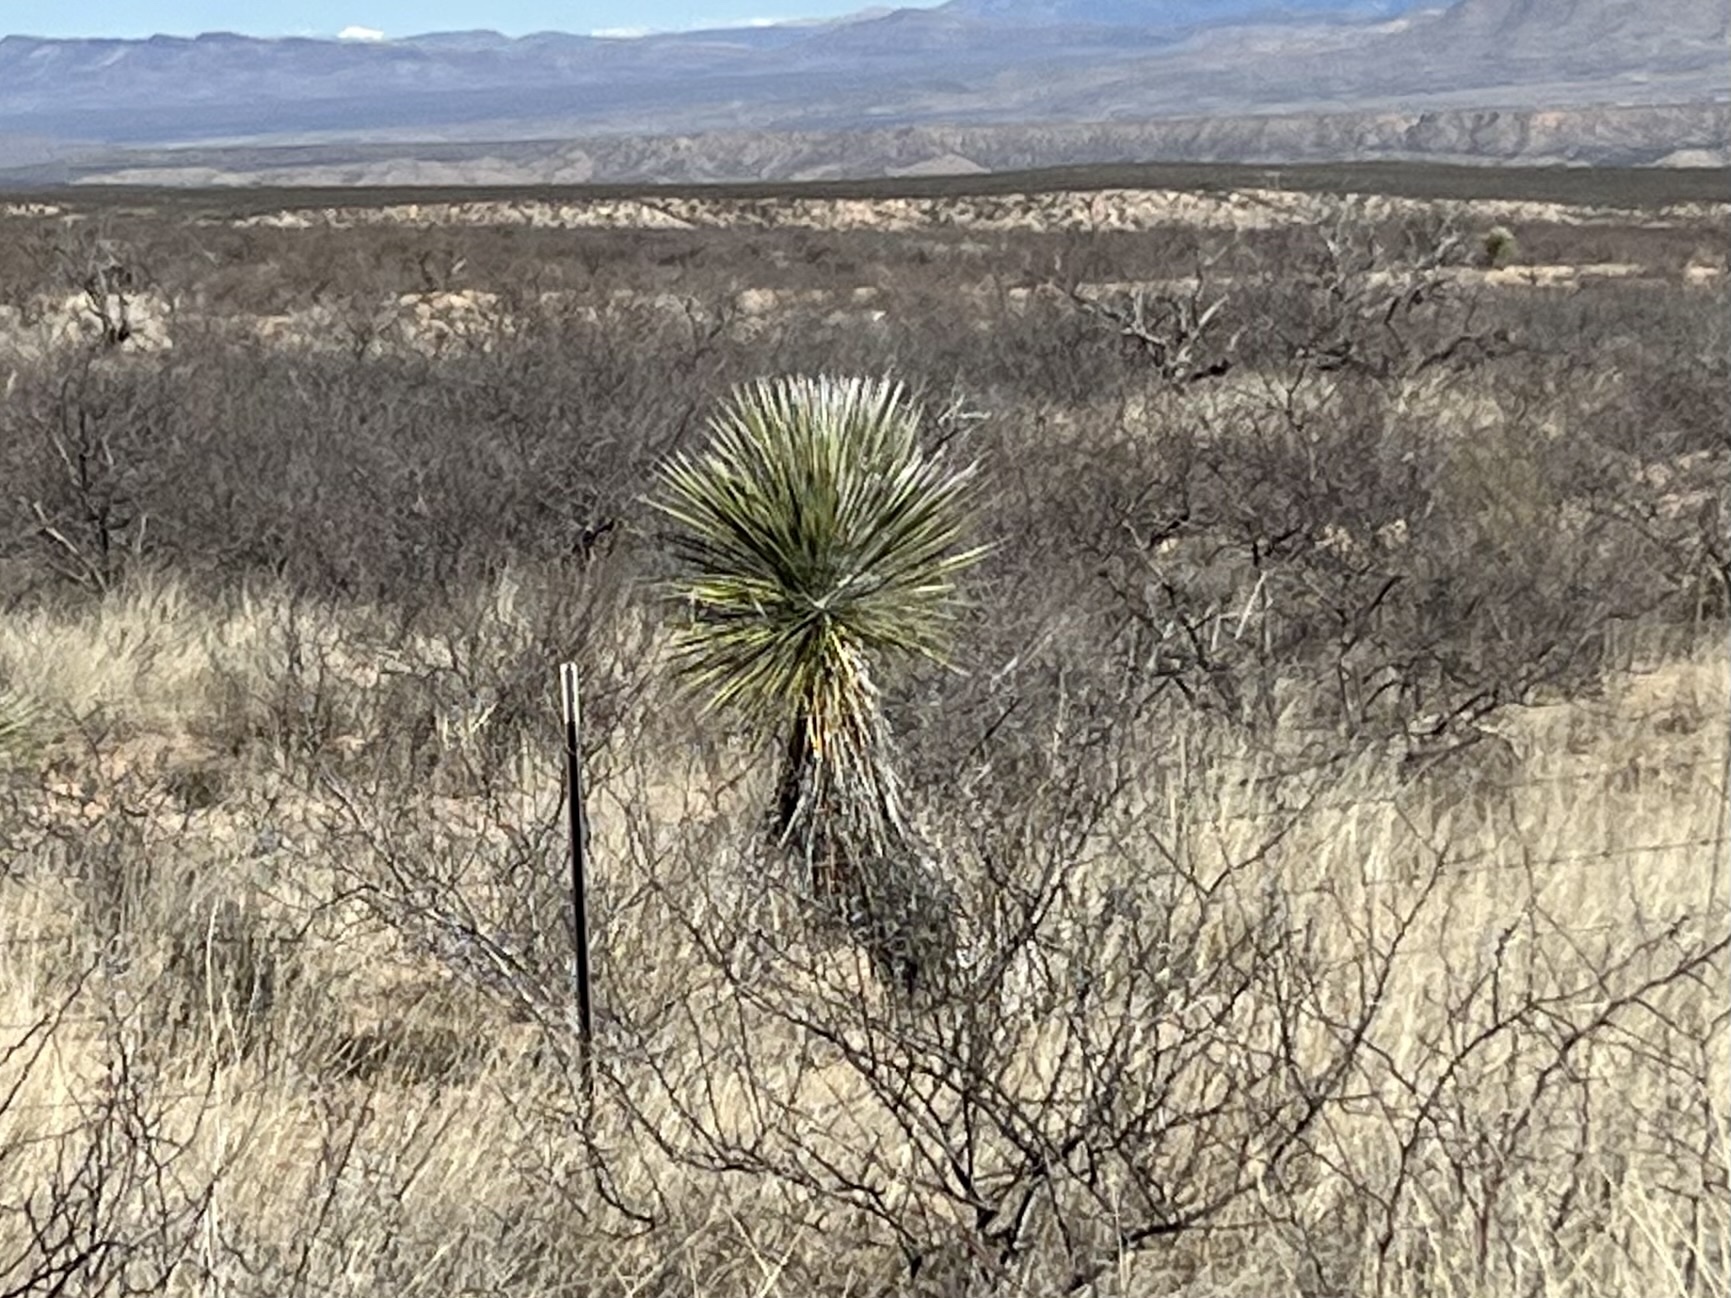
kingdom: Plantae
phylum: Tracheophyta
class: Liliopsida
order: Asparagales
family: Asparagaceae
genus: Yucca
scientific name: Yucca elata
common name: Palmella
